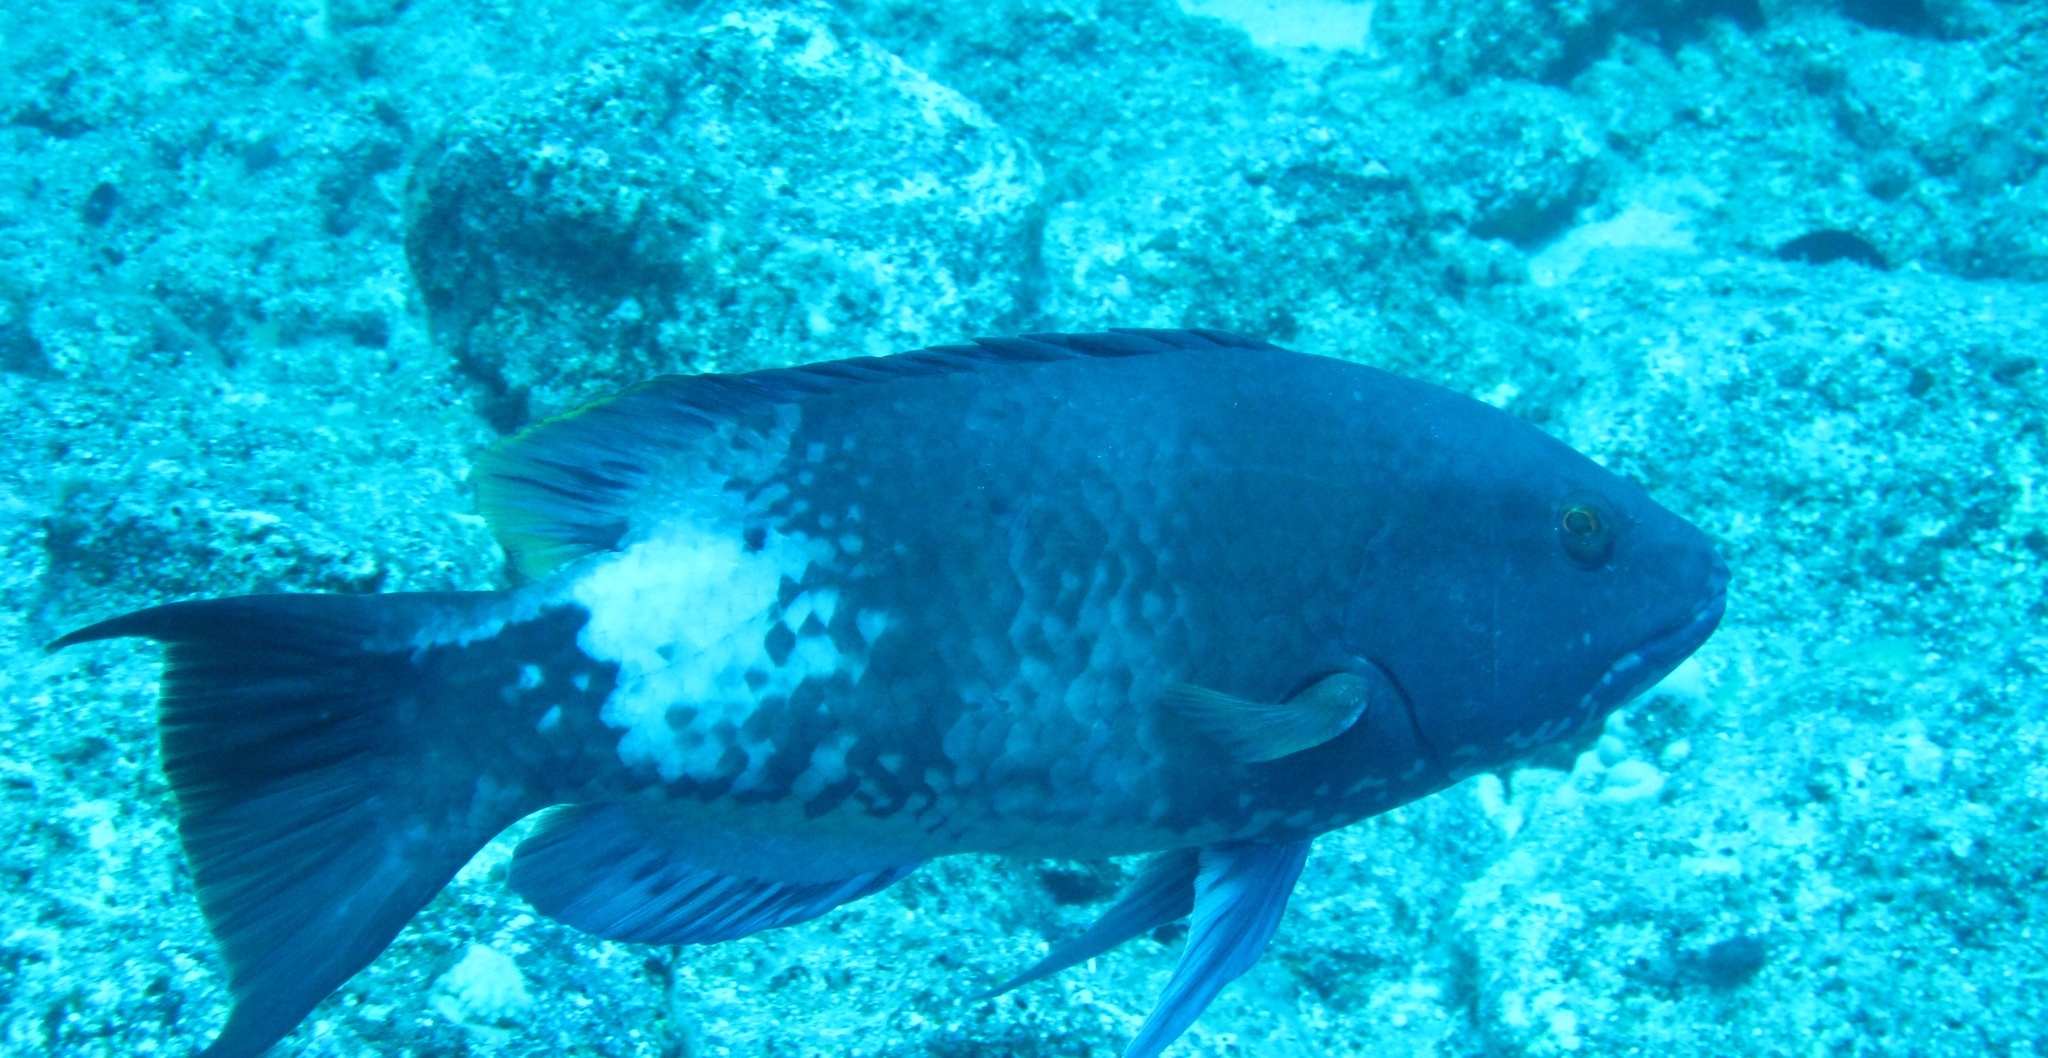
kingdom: Animalia
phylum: Chordata
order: Perciformes
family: Labridae
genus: Bodianus
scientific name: Bodianus albotaeniatus
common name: Hawaiian hogfish
